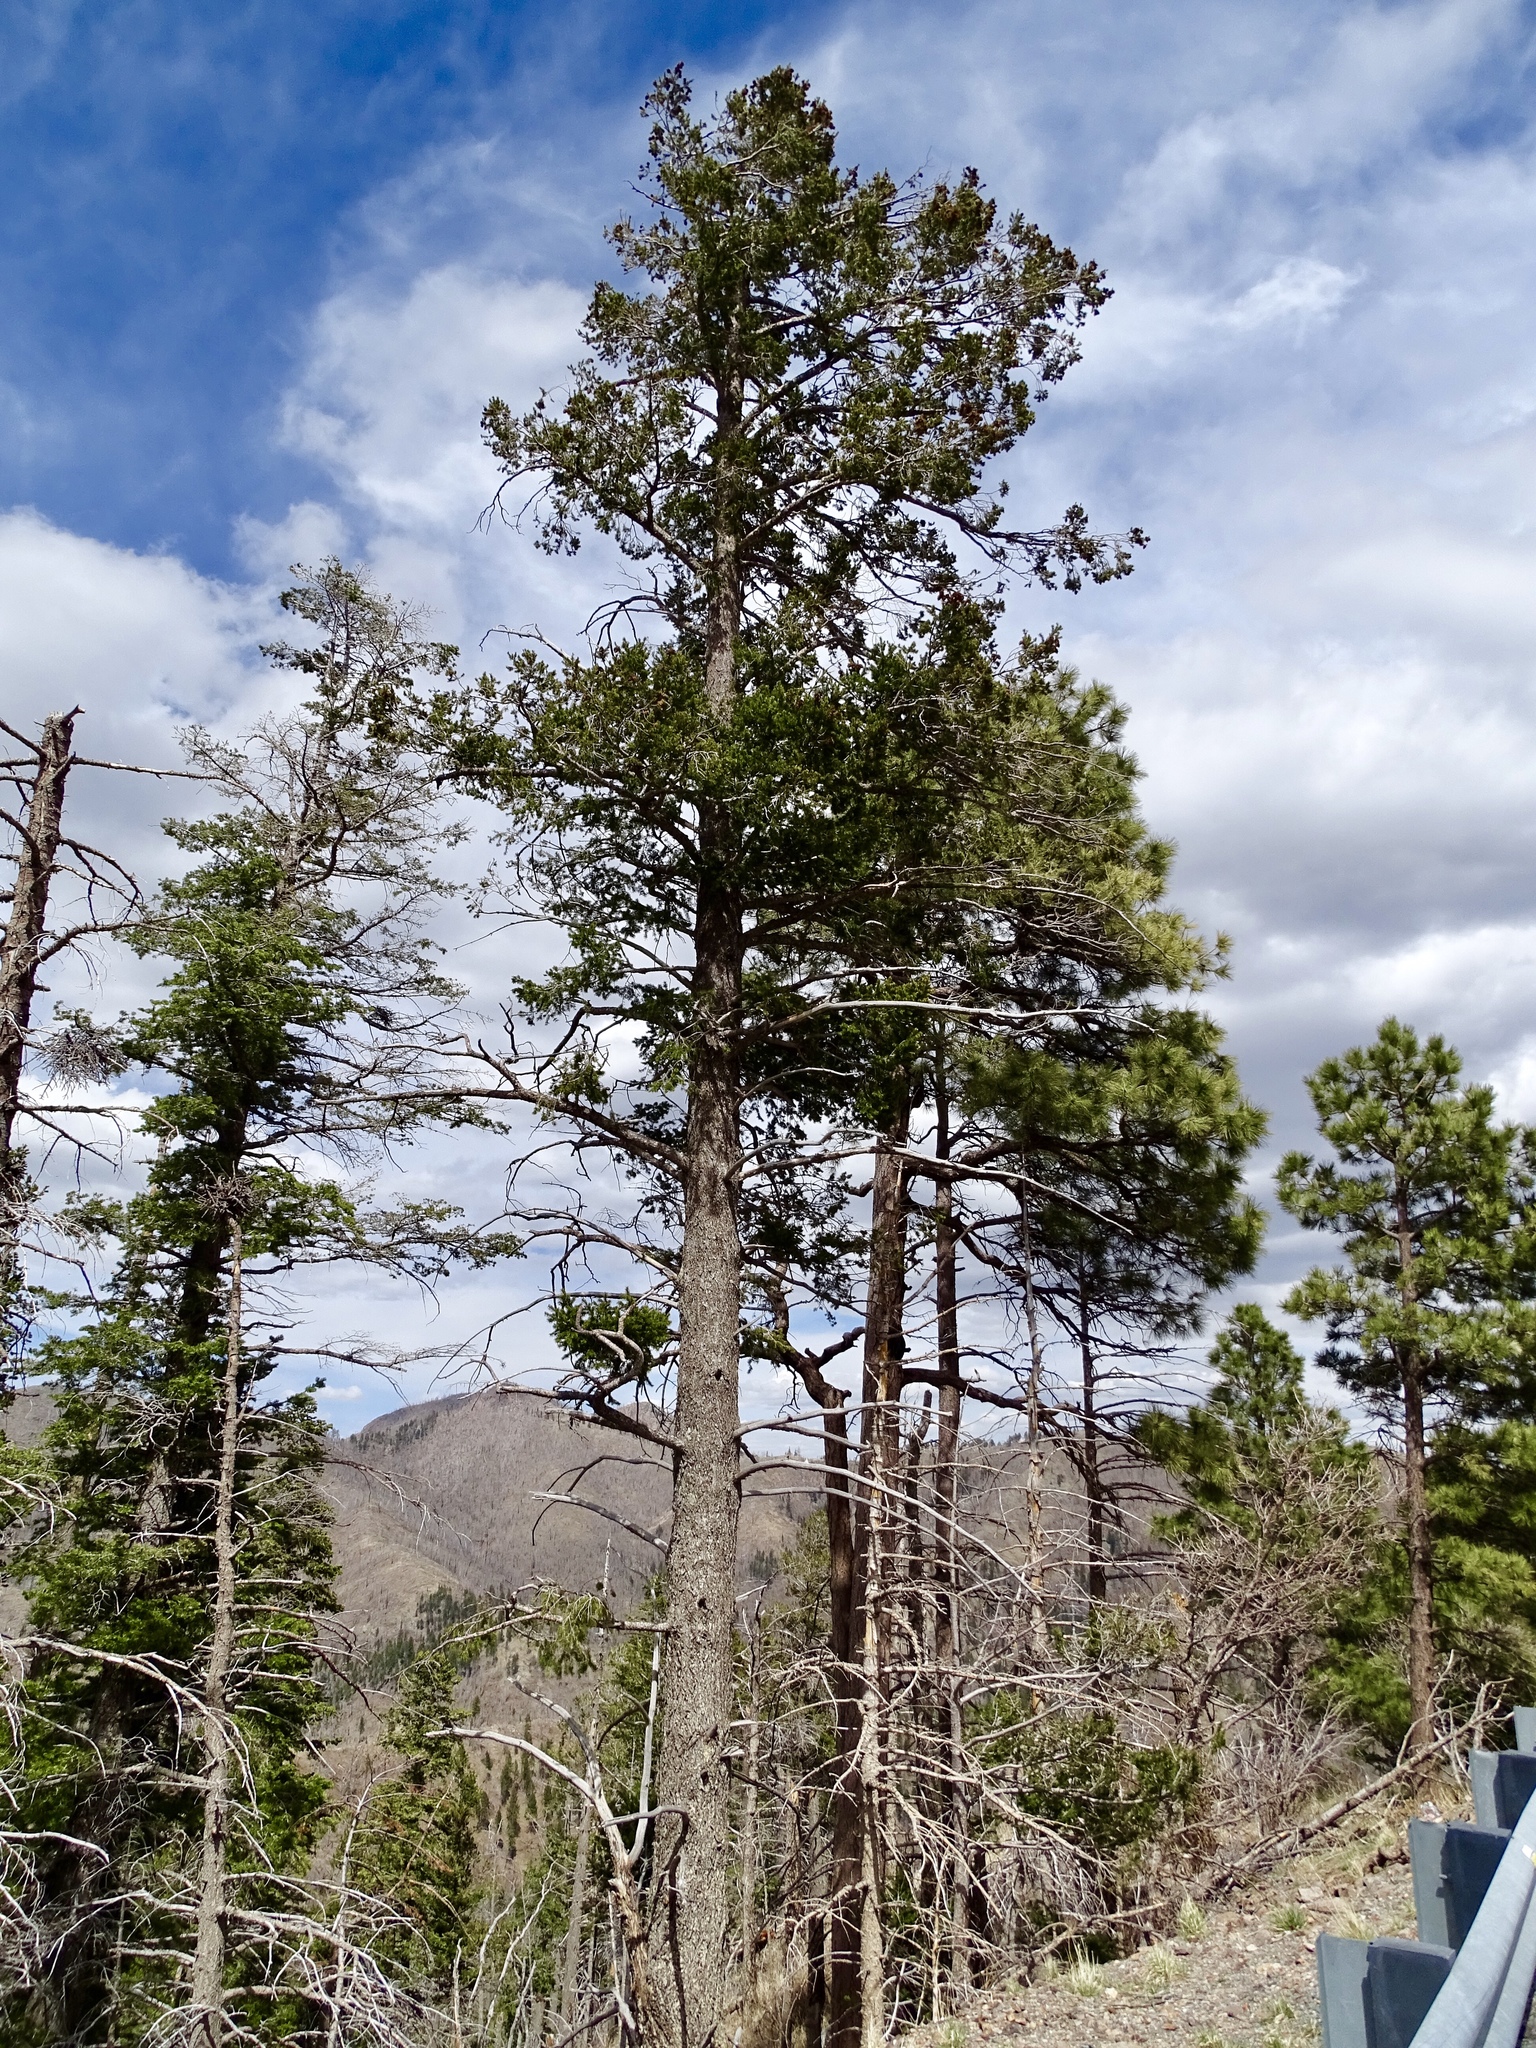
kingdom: Plantae
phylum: Tracheophyta
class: Pinopsida
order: Pinales
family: Pinaceae
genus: Pseudotsuga
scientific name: Pseudotsuga menziesii
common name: Douglas fir
